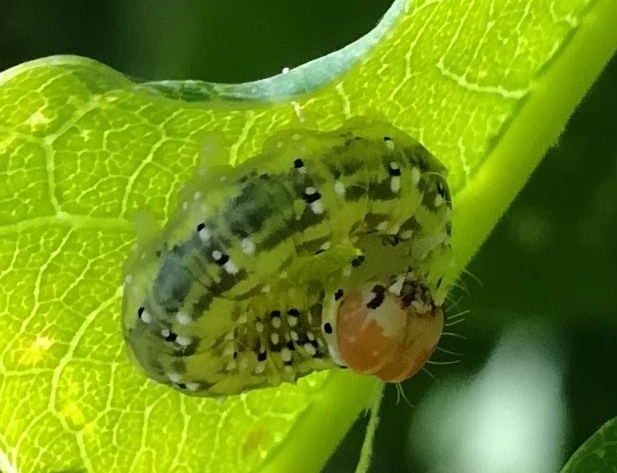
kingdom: Animalia
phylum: Arthropoda
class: Insecta
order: Lepidoptera
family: Drepanidae
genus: Polyploca
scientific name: Polyploca ridens
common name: Frosted green
